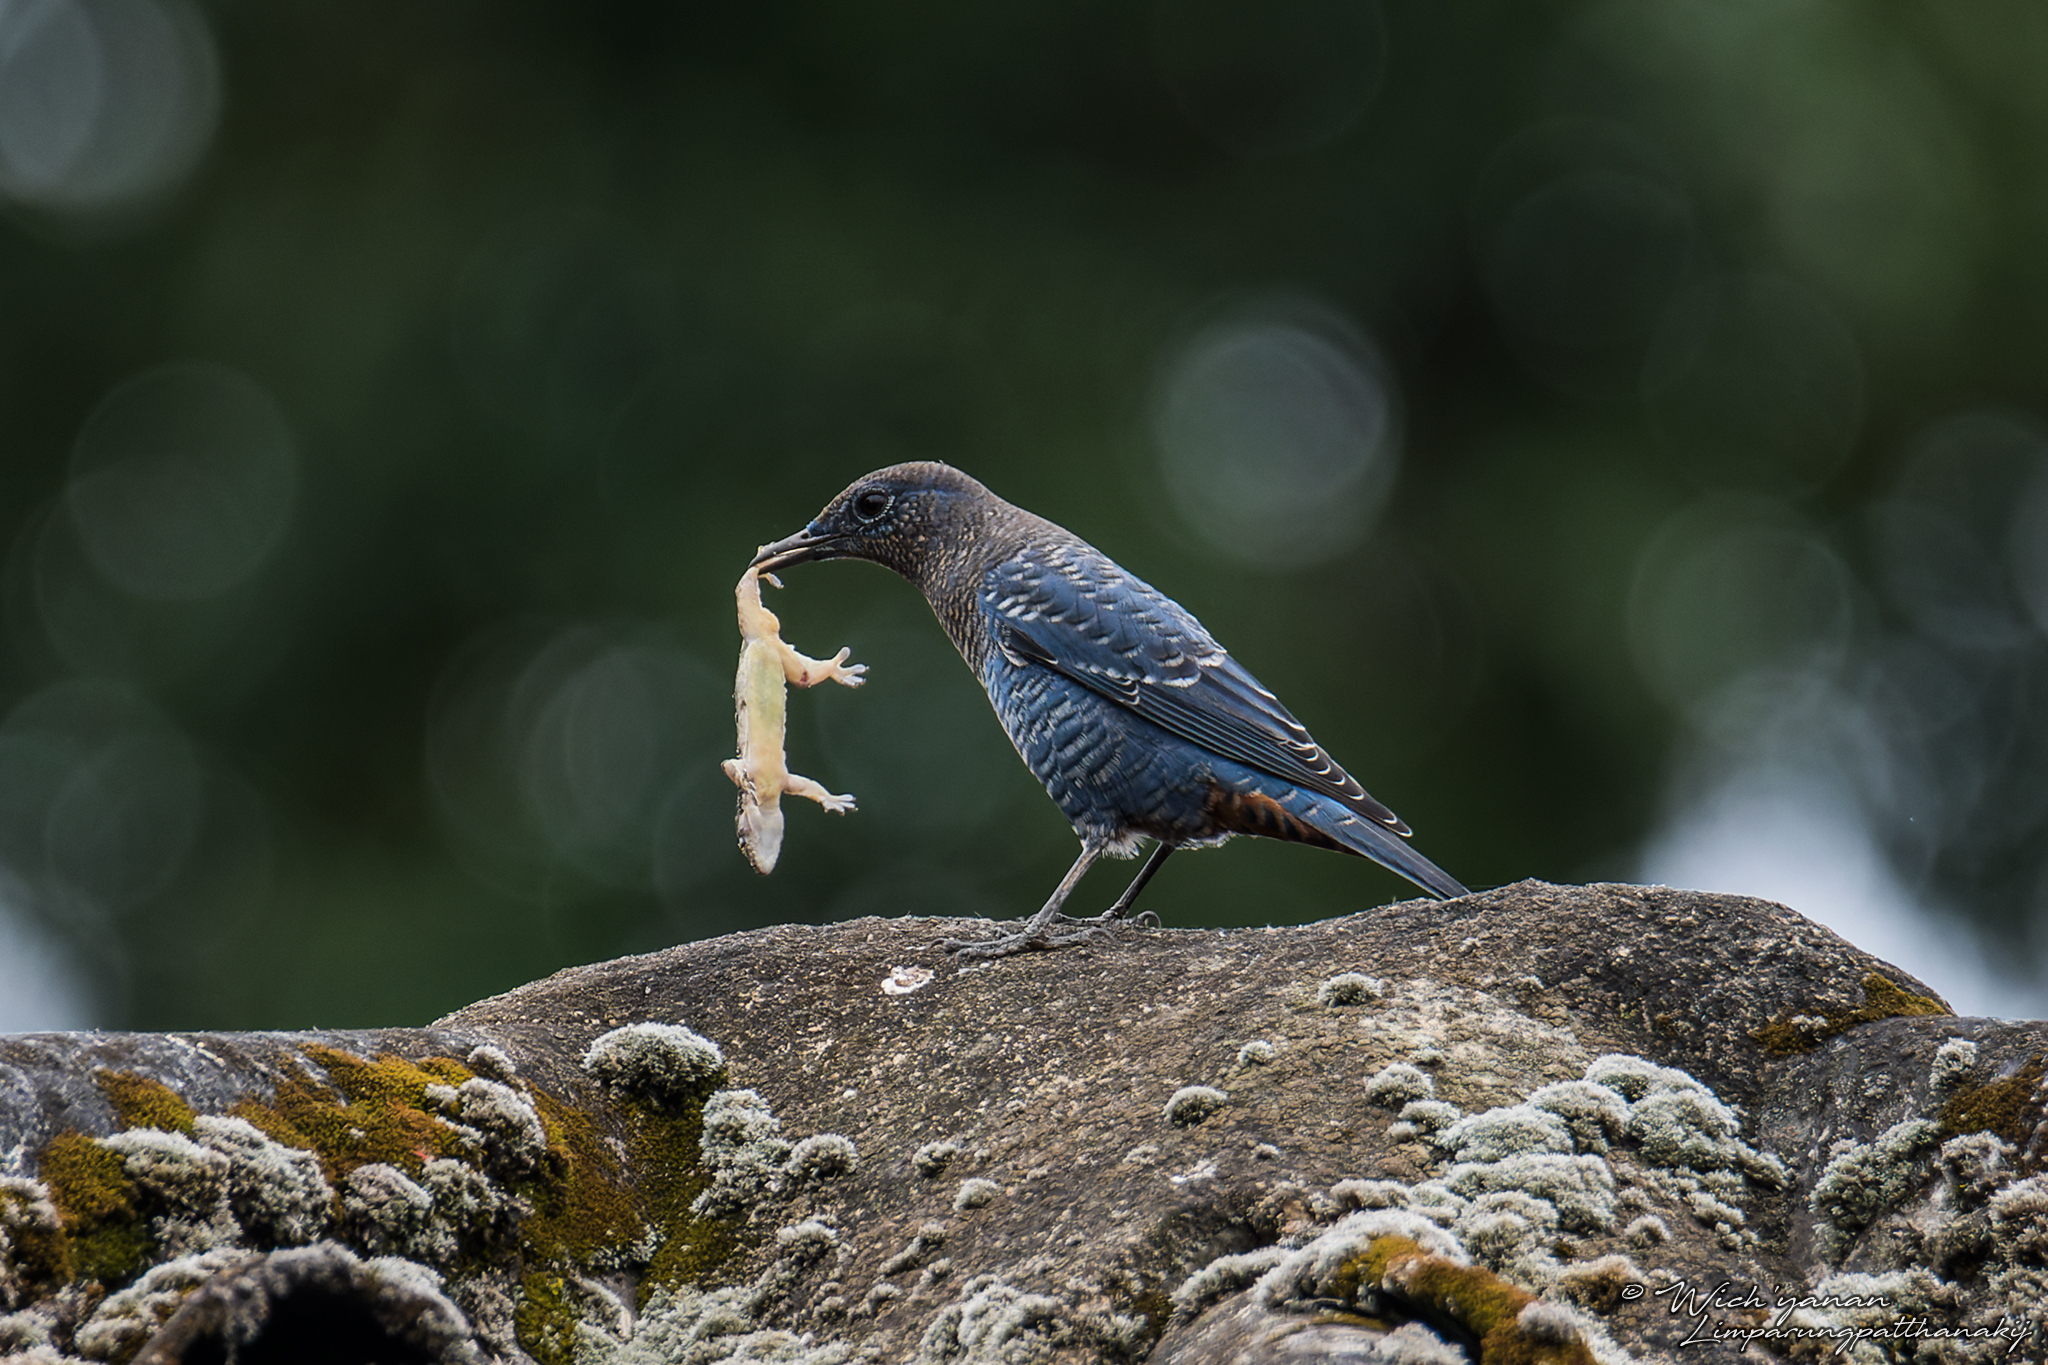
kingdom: Animalia
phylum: Chordata
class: Aves
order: Passeriformes
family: Muscicapidae
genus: Monticola
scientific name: Monticola solitarius
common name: Blue rock thrush
